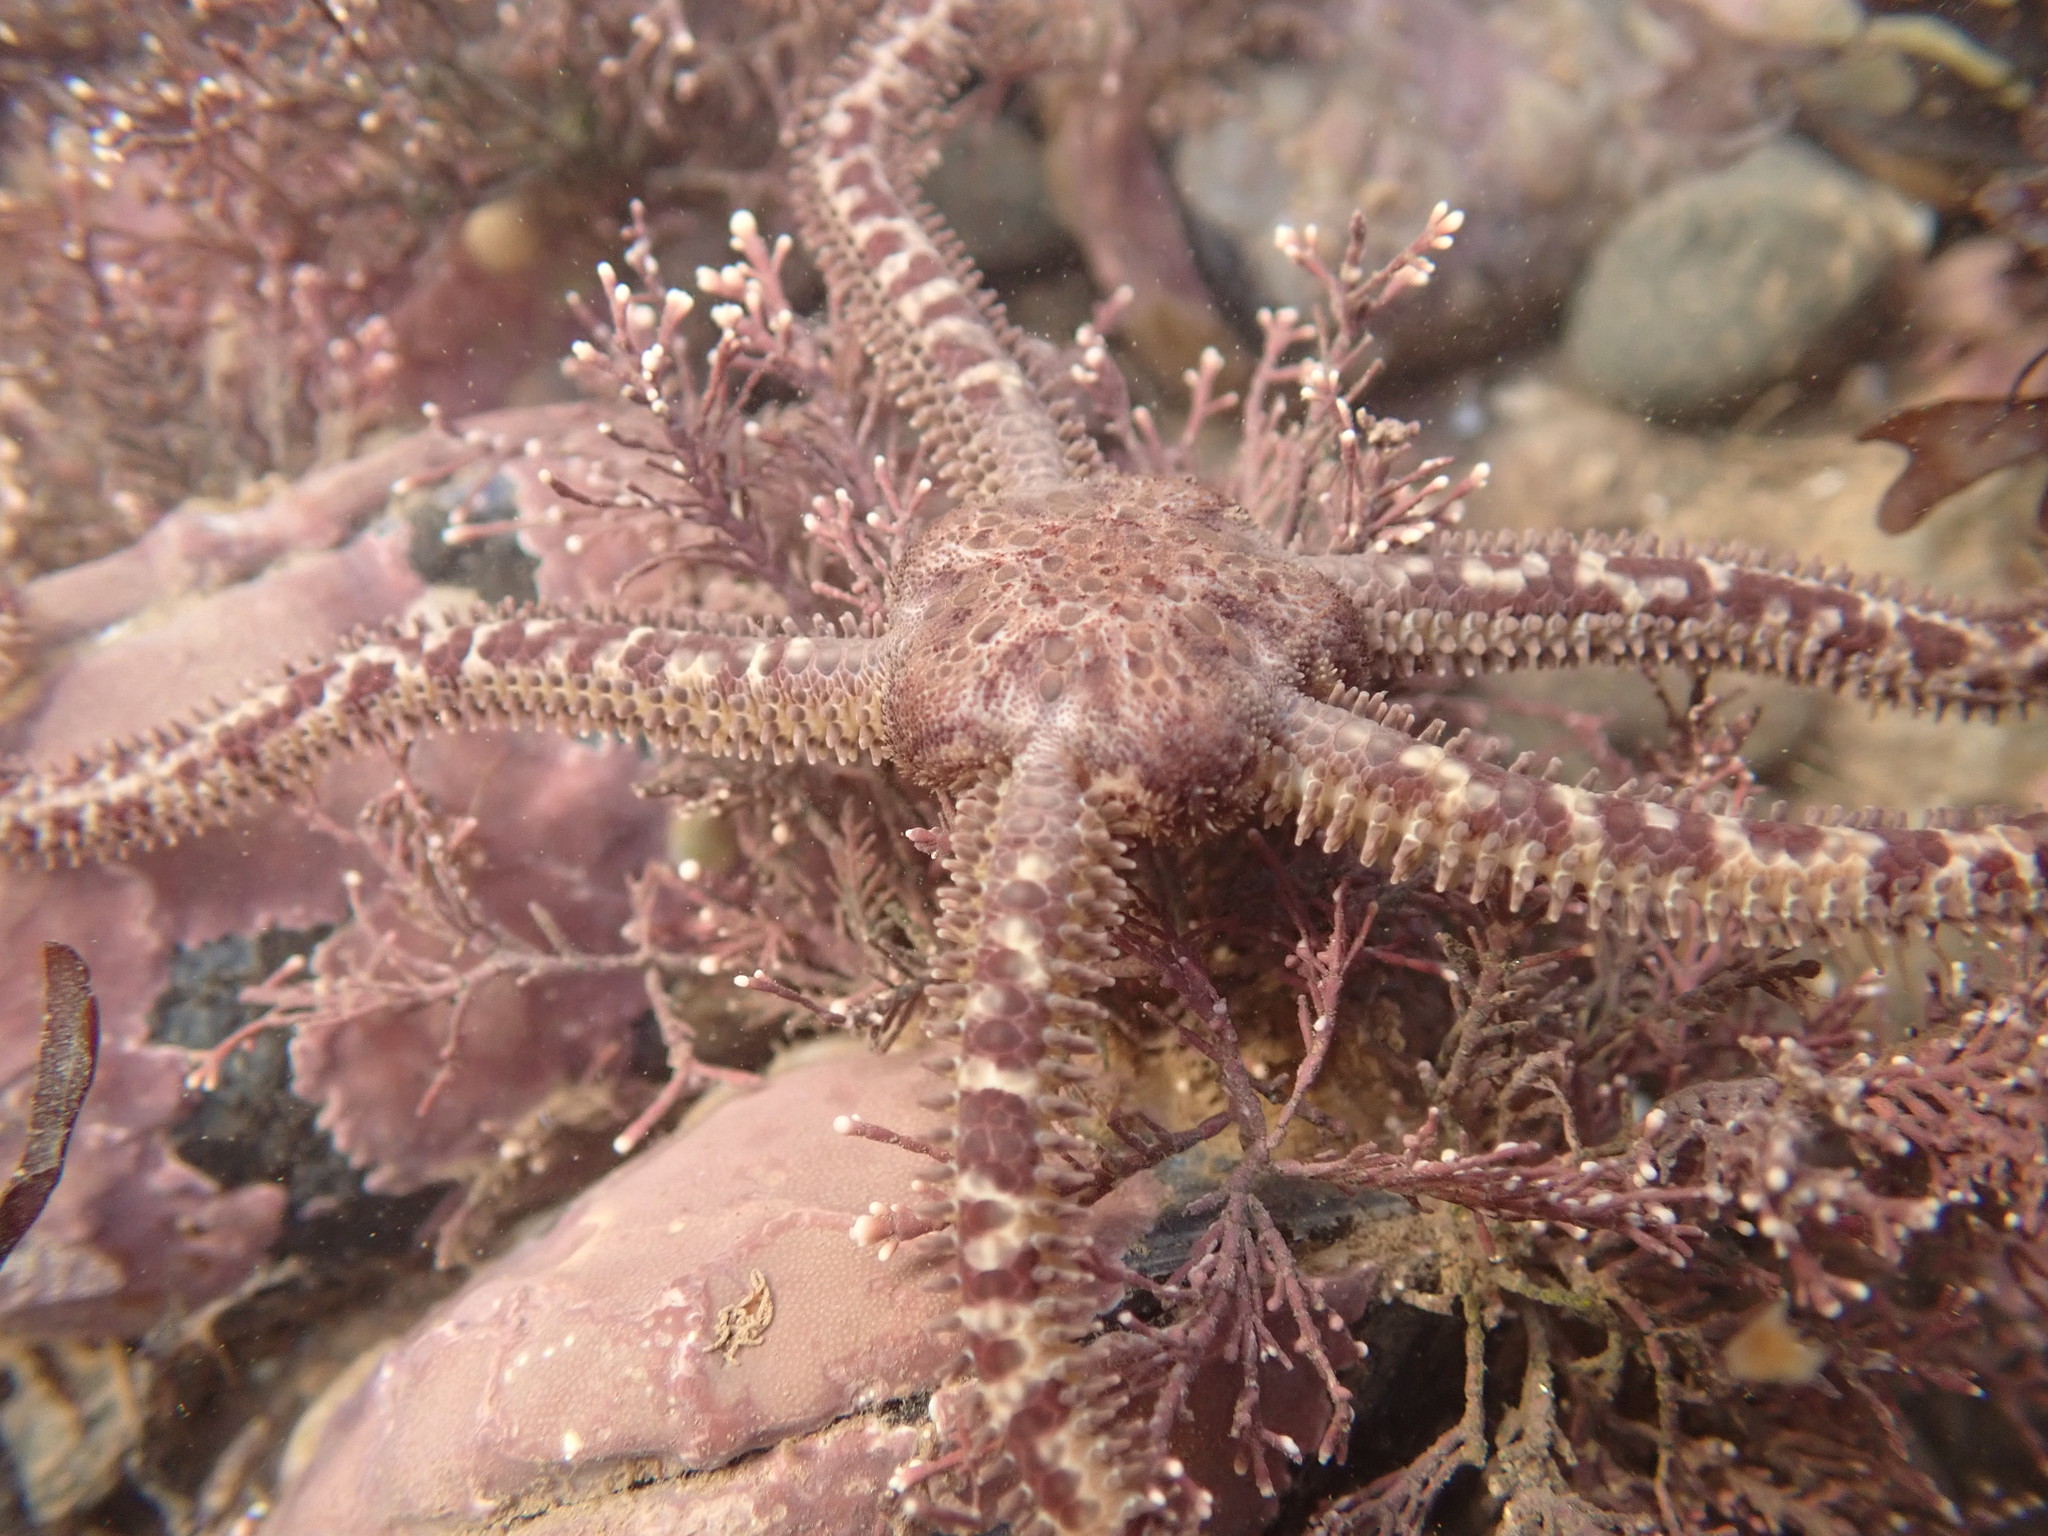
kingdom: Animalia
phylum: Echinodermata
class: Ophiuroidea
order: Amphilepidida
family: Ophiopholidae
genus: Ophiopholis
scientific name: Ophiopholis aculeata
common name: Crevice brittlestar
